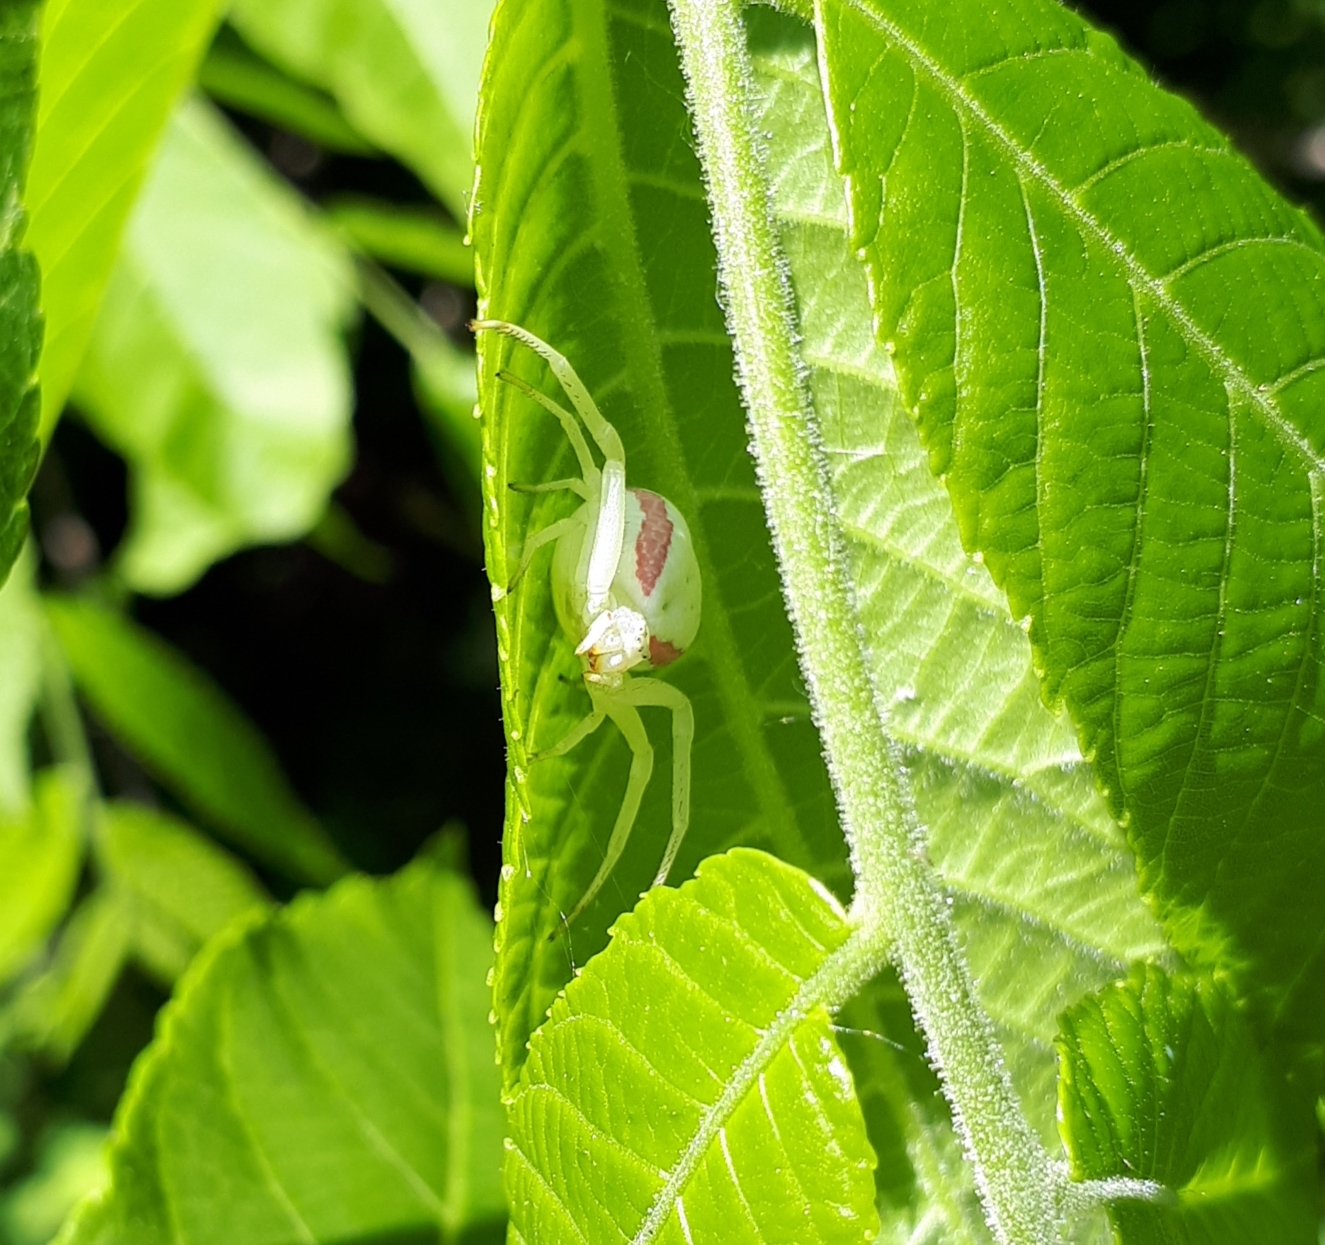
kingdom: Animalia
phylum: Arthropoda
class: Arachnida
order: Araneae
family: Thomisidae
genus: Misumena
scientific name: Misumena vatia
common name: Goldenrod crab spider
